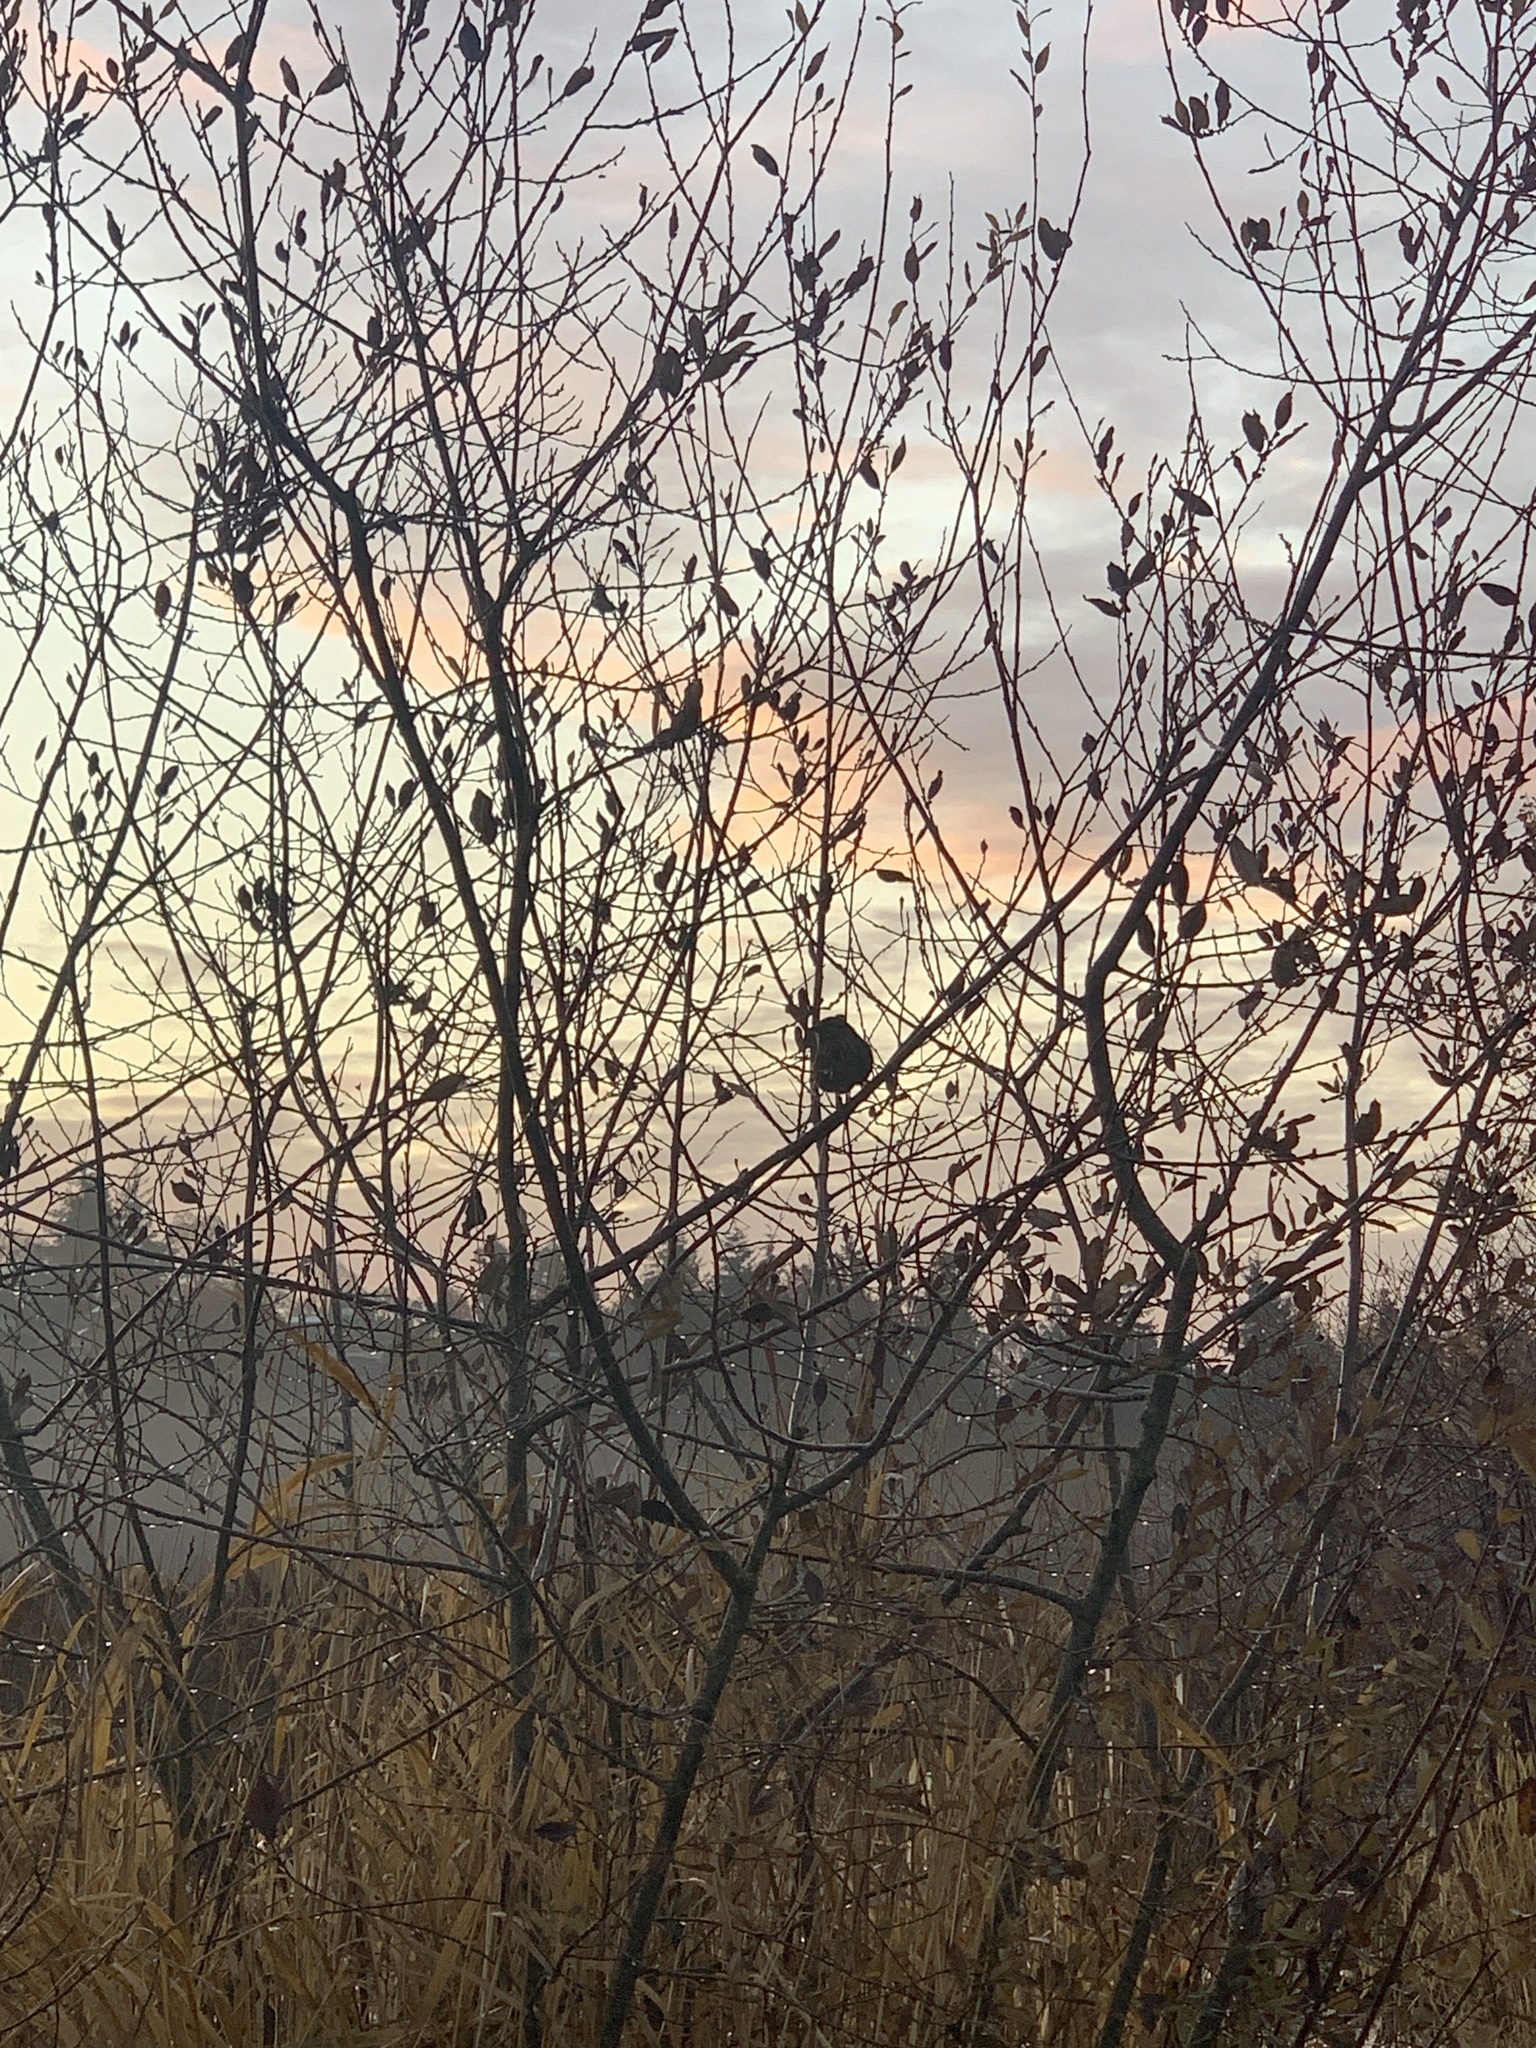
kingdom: Animalia
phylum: Chordata
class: Aves
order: Passeriformes
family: Passerellidae
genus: Melospiza
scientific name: Melospiza melodia
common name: Song sparrow
